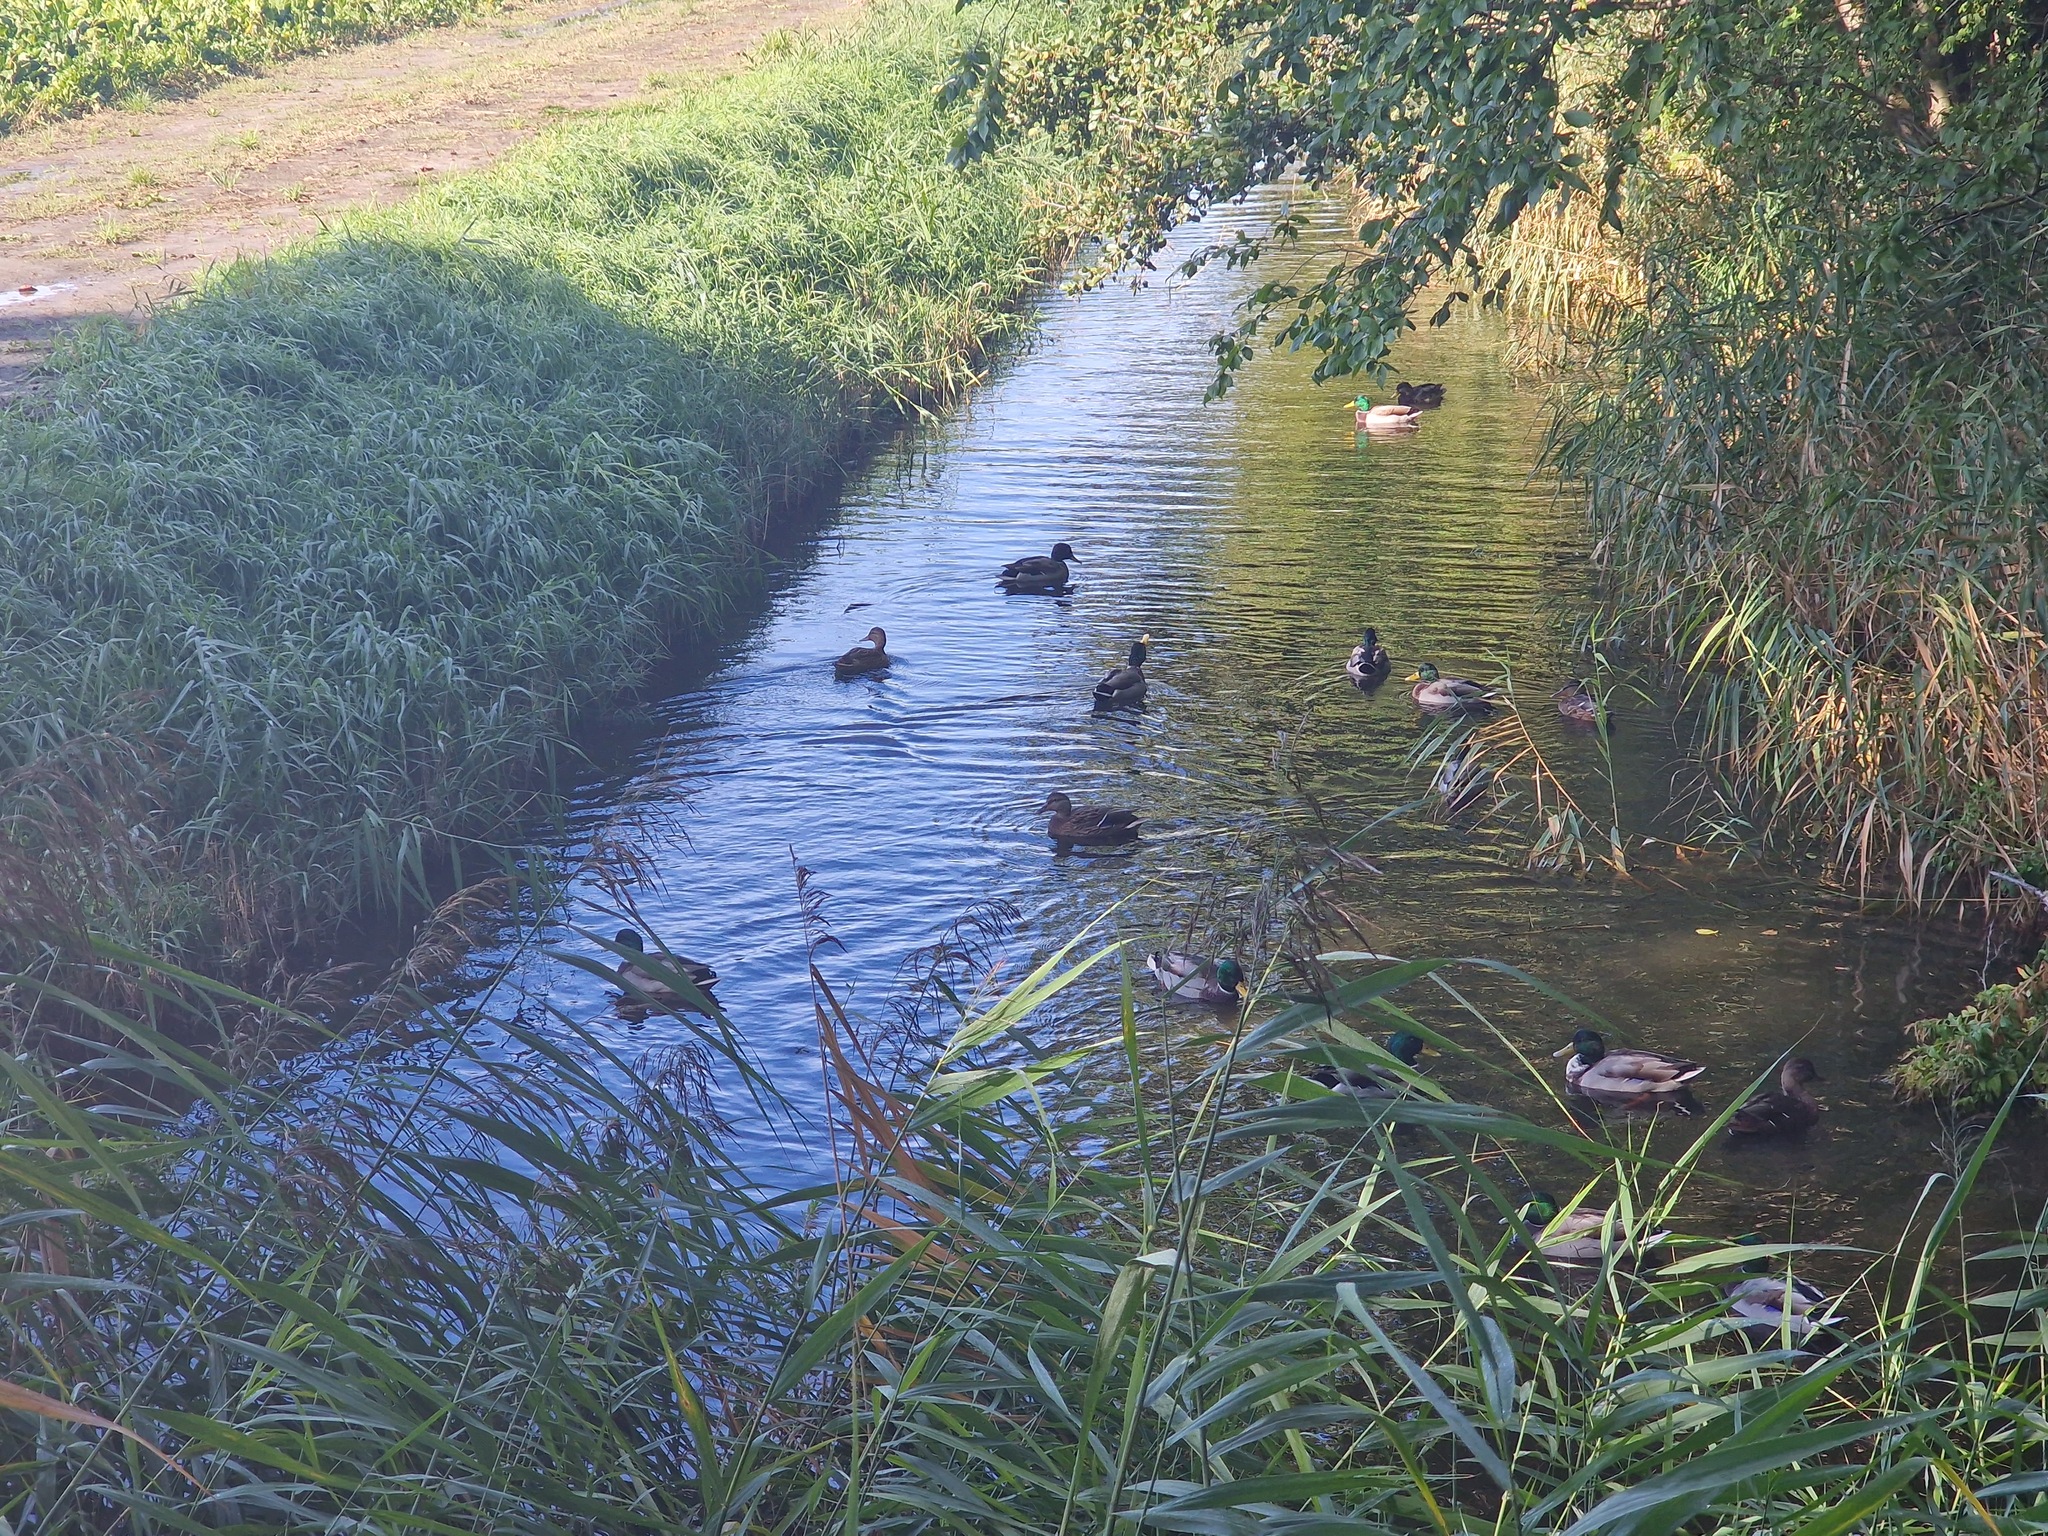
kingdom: Animalia
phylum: Chordata
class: Aves
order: Anseriformes
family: Anatidae
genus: Anas
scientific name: Anas platyrhynchos
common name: Mallard
